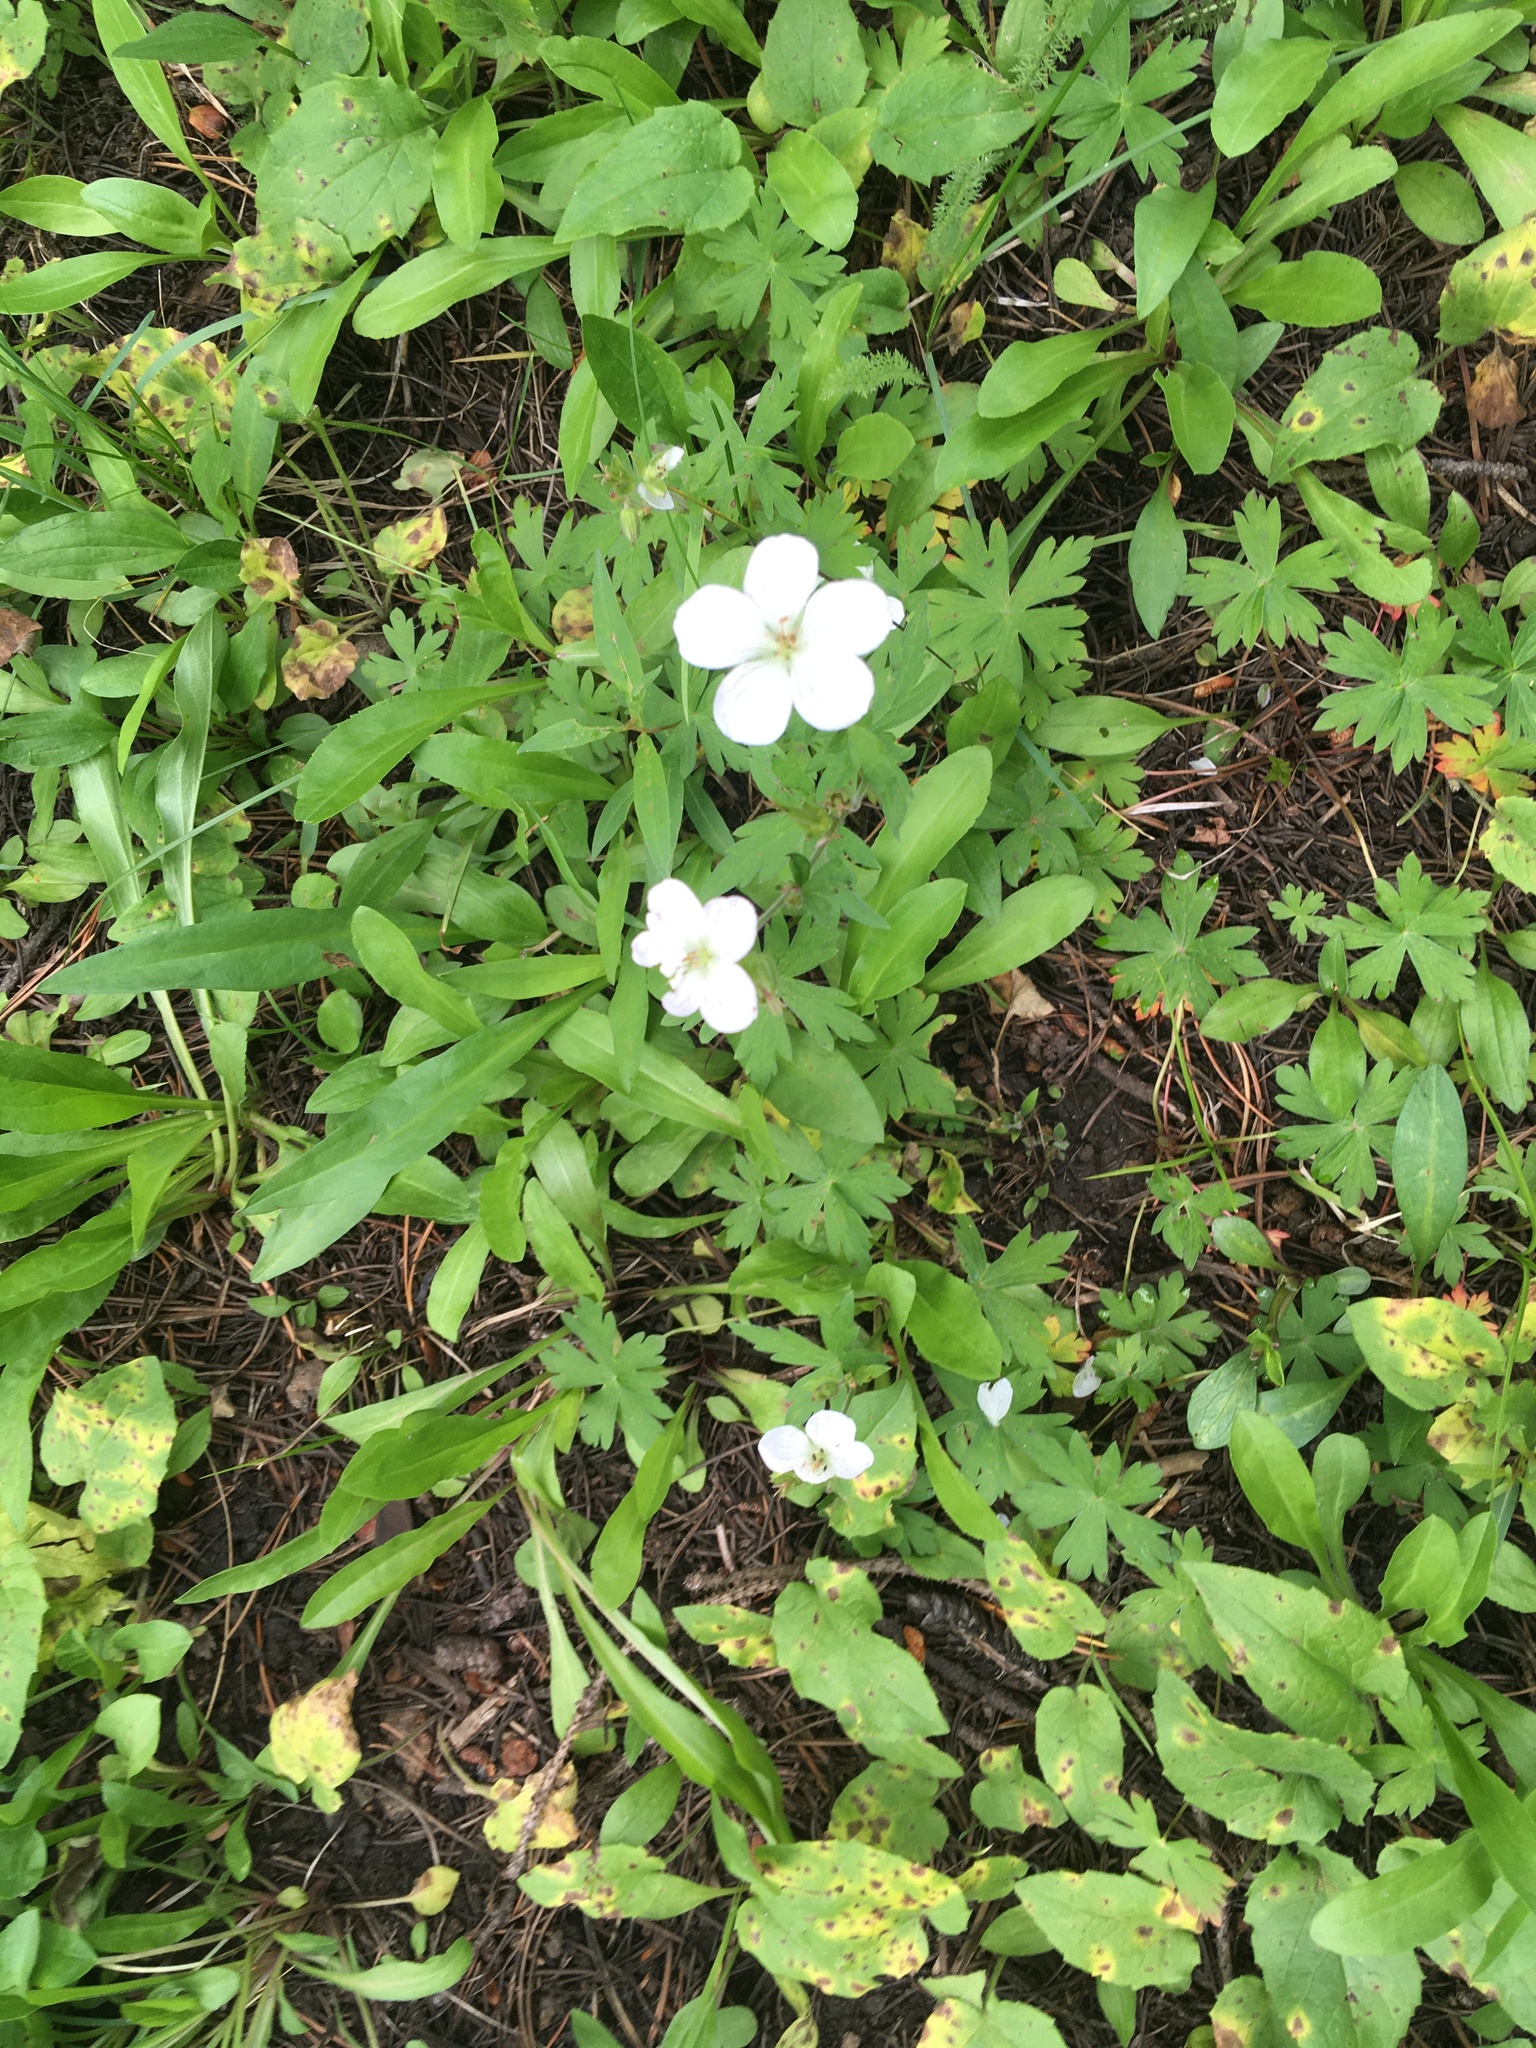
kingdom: Plantae
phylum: Tracheophyta
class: Magnoliopsida
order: Geraniales
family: Geraniaceae
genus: Geranium
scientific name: Geranium richardsonii
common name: Richardson's crane's-bill
